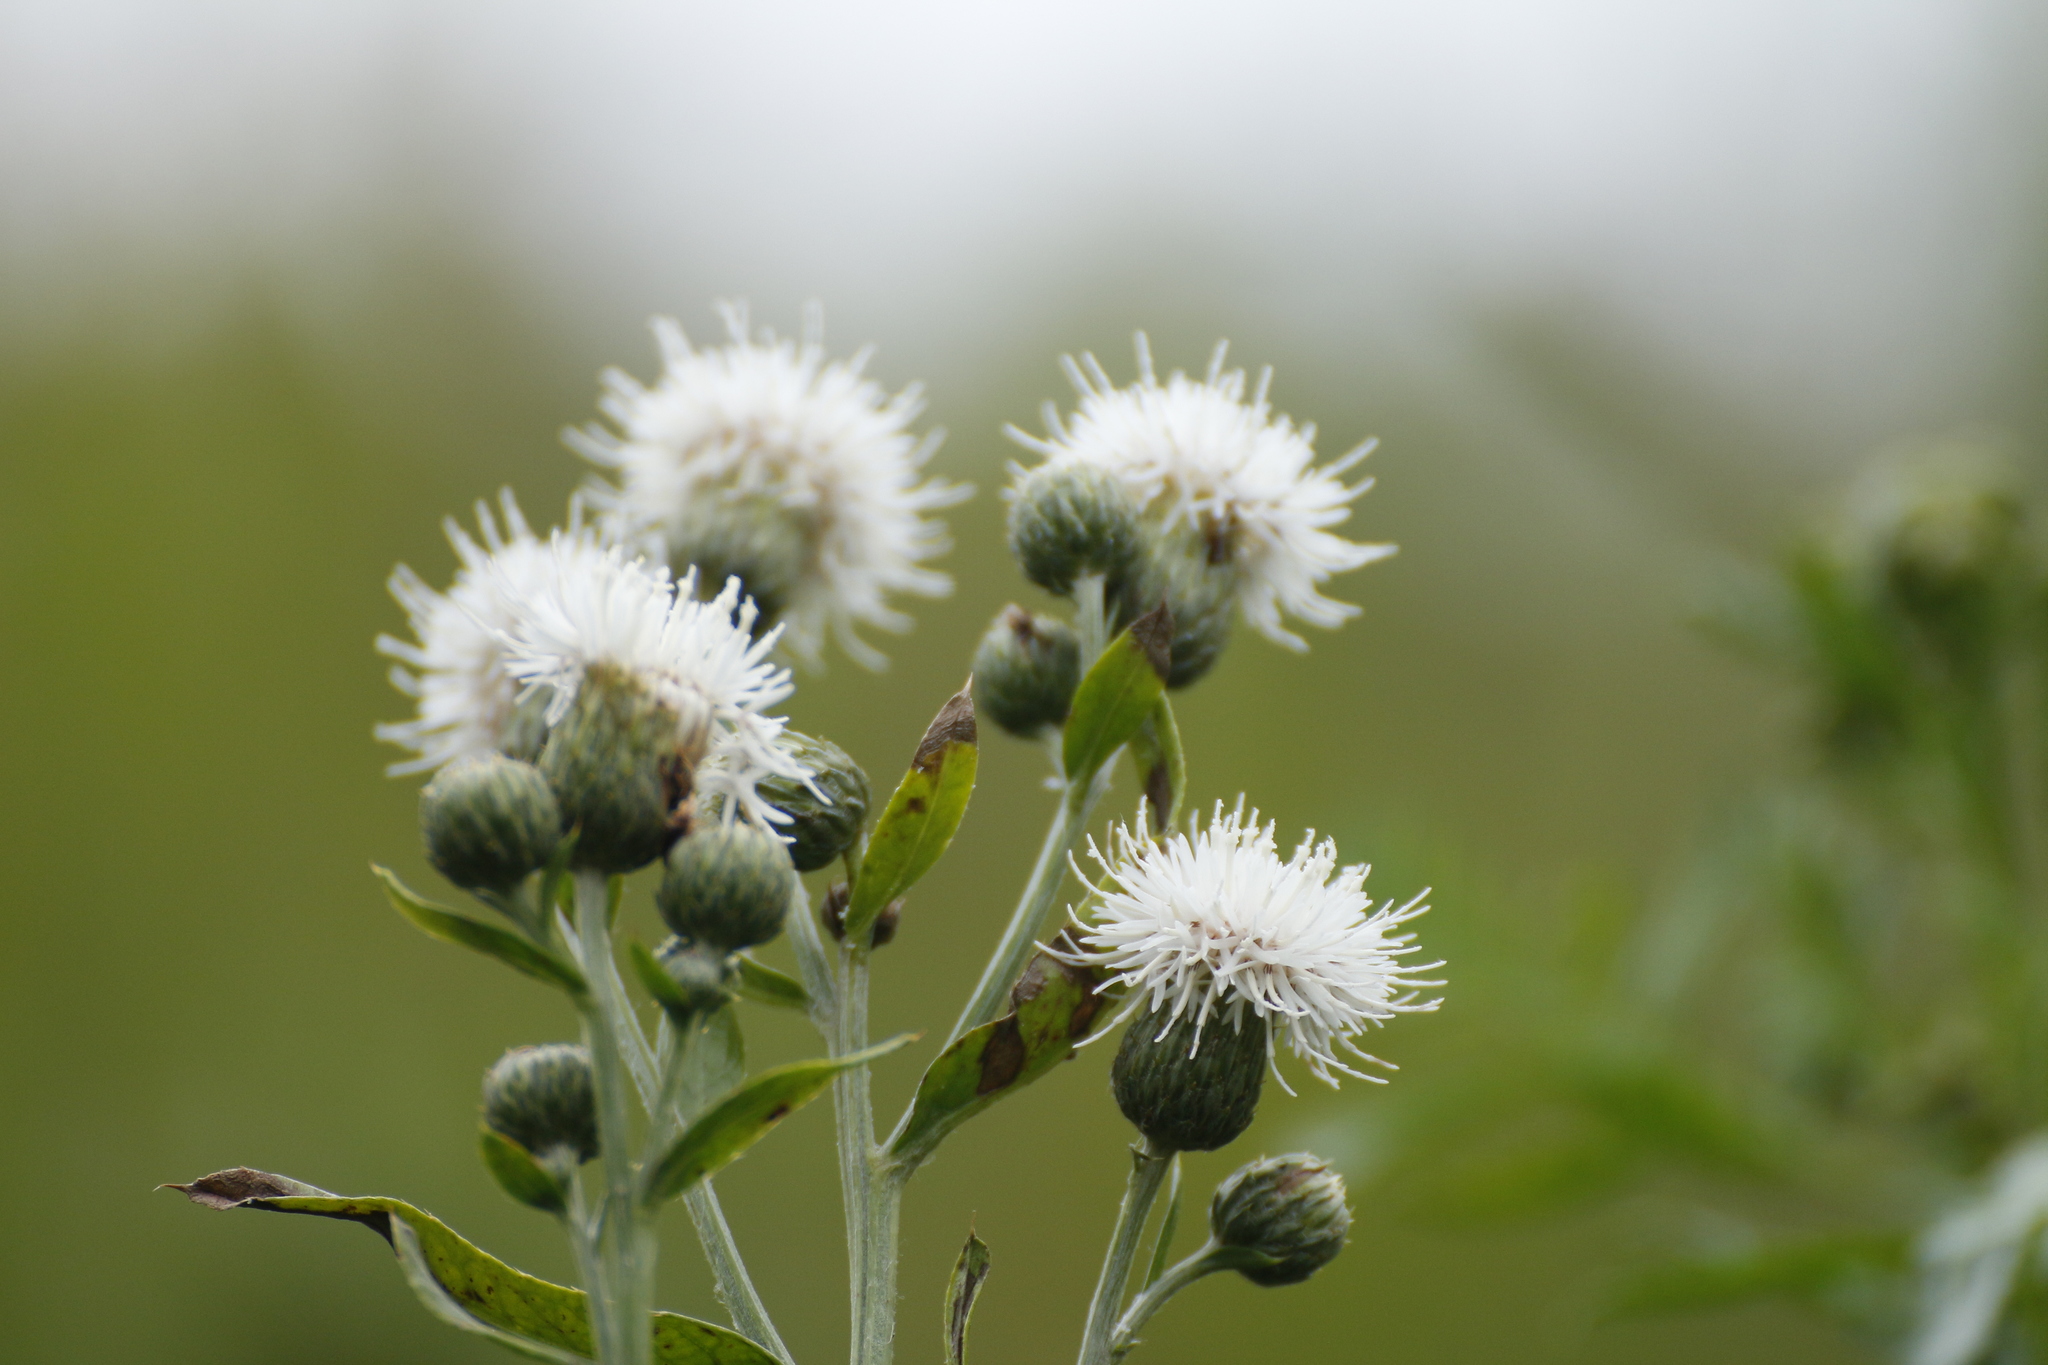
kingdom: Plantae
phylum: Tracheophyta
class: Magnoliopsida
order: Asterales
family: Asteraceae
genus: Cirsium
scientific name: Cirsium arvense
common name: Creeping thistle
